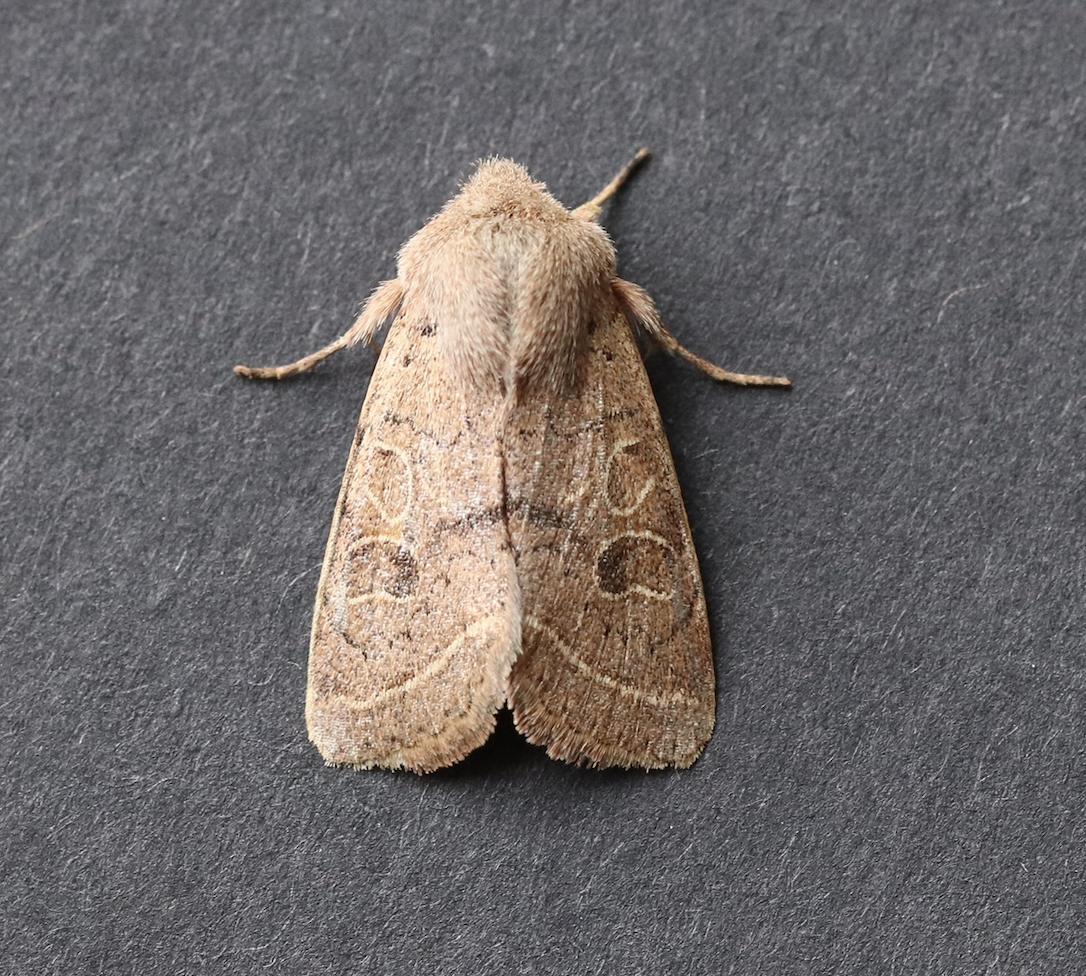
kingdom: Animalia
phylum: Arthropoda
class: Insecta
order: Lepidoptera
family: Noctuidae
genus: Orthosia
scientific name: Orthosia cerasi
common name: Common quaker
